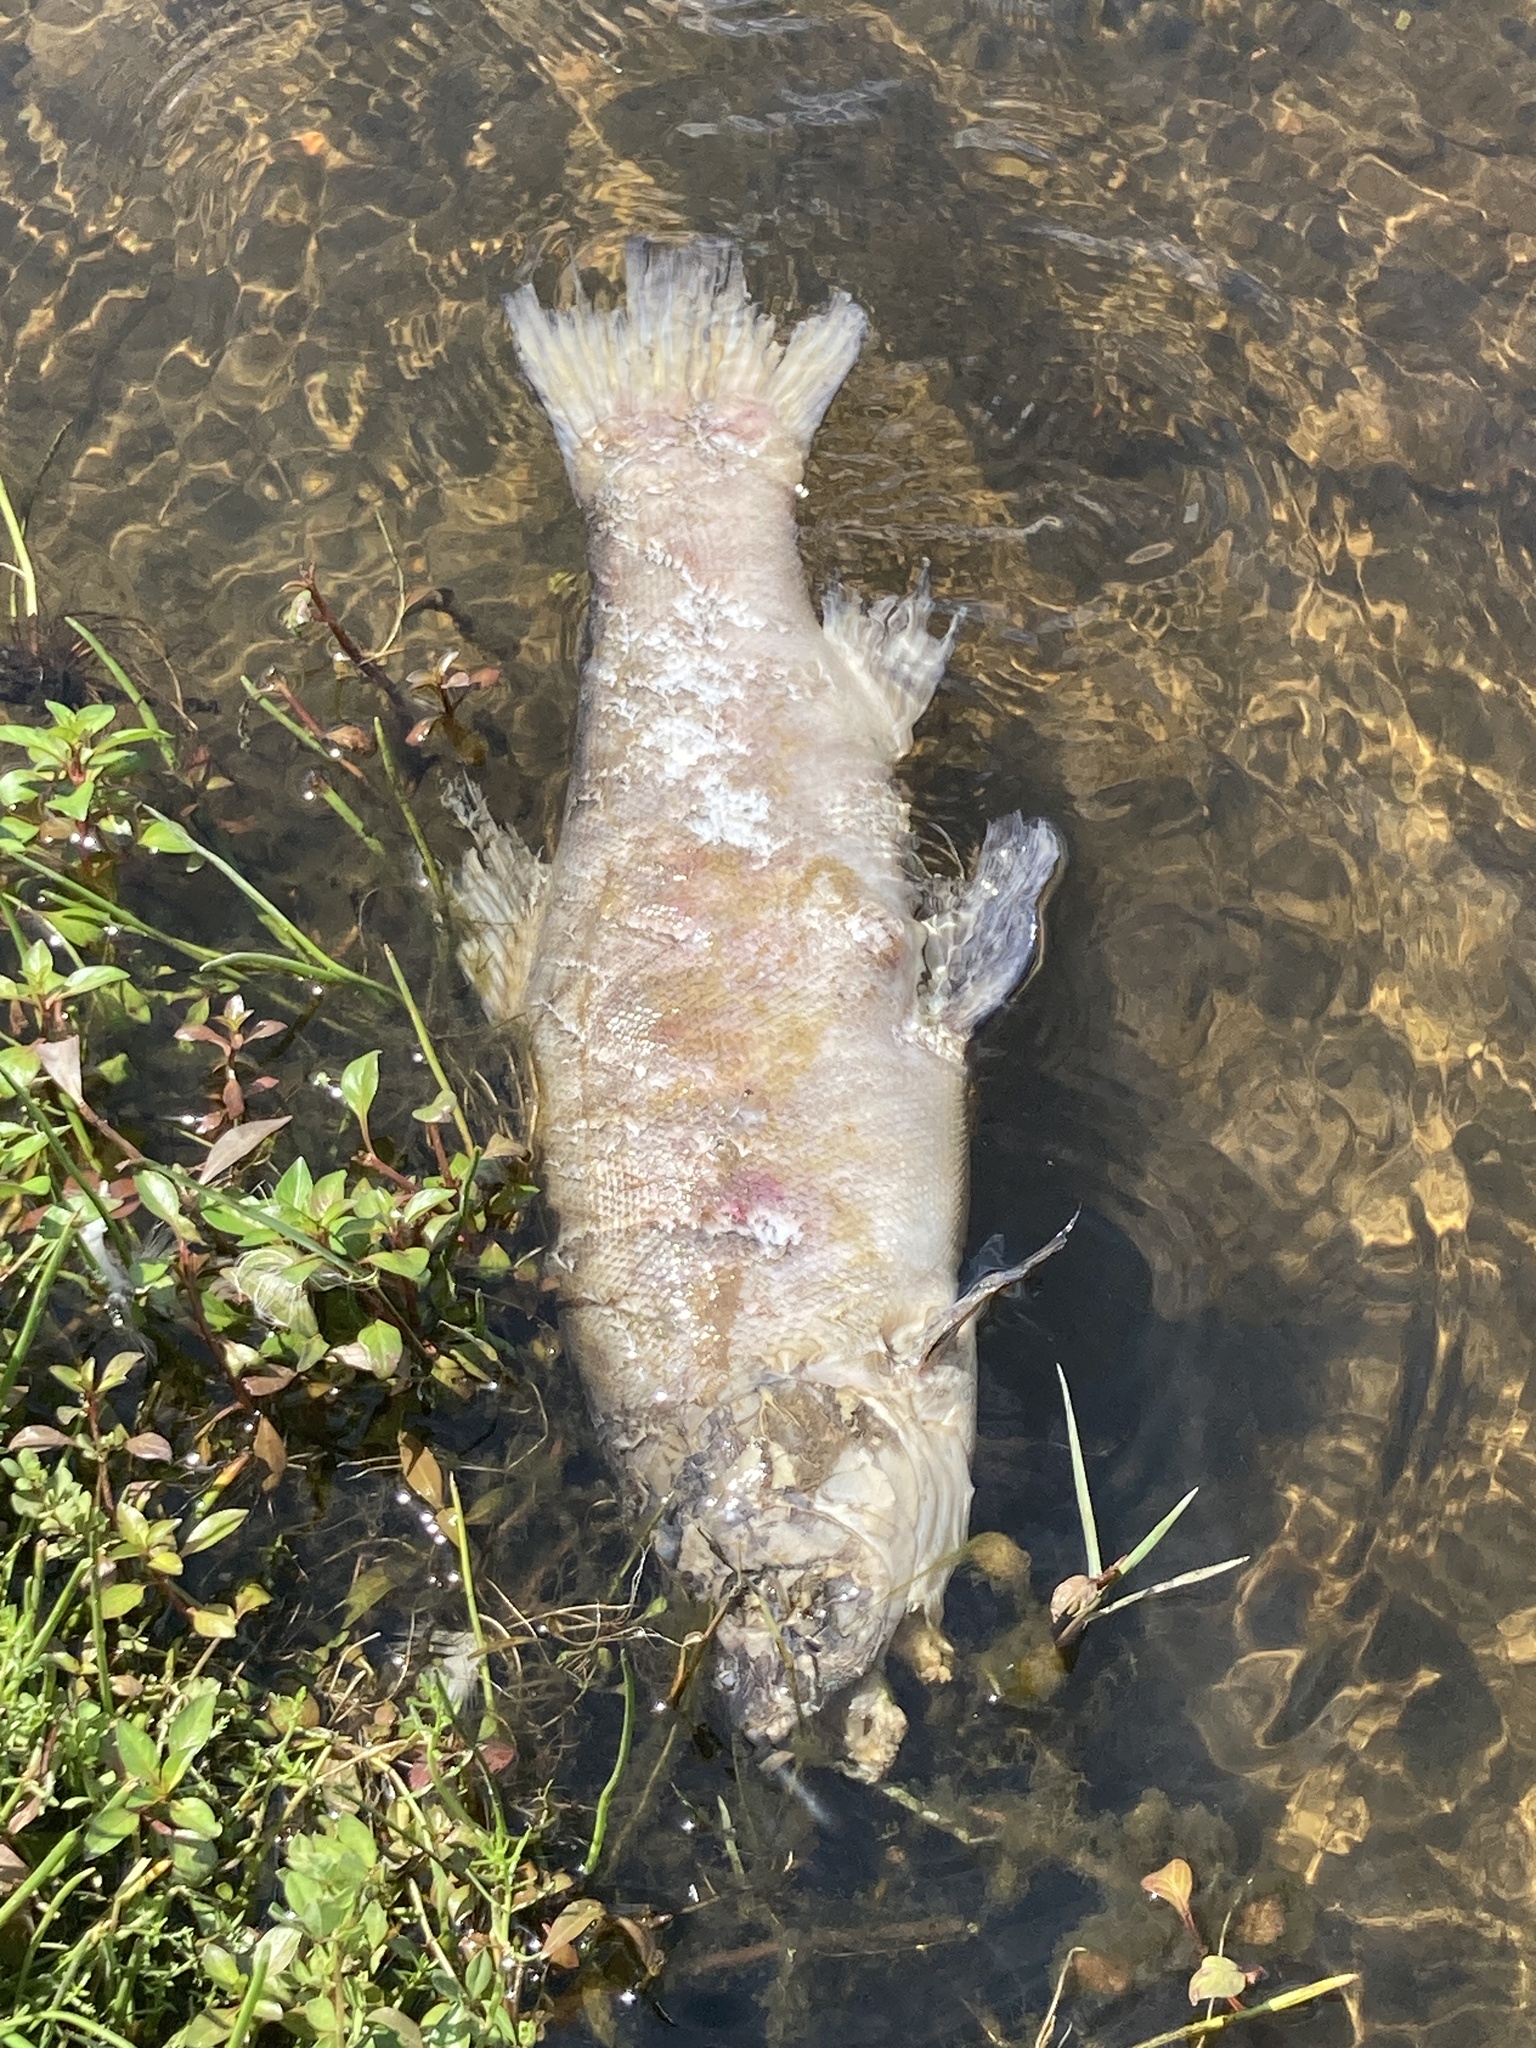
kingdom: Animalia
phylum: Chordata
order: Cypriniformes
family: Cyprinidae
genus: Tinca
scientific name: Tinca tinca
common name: Tench
